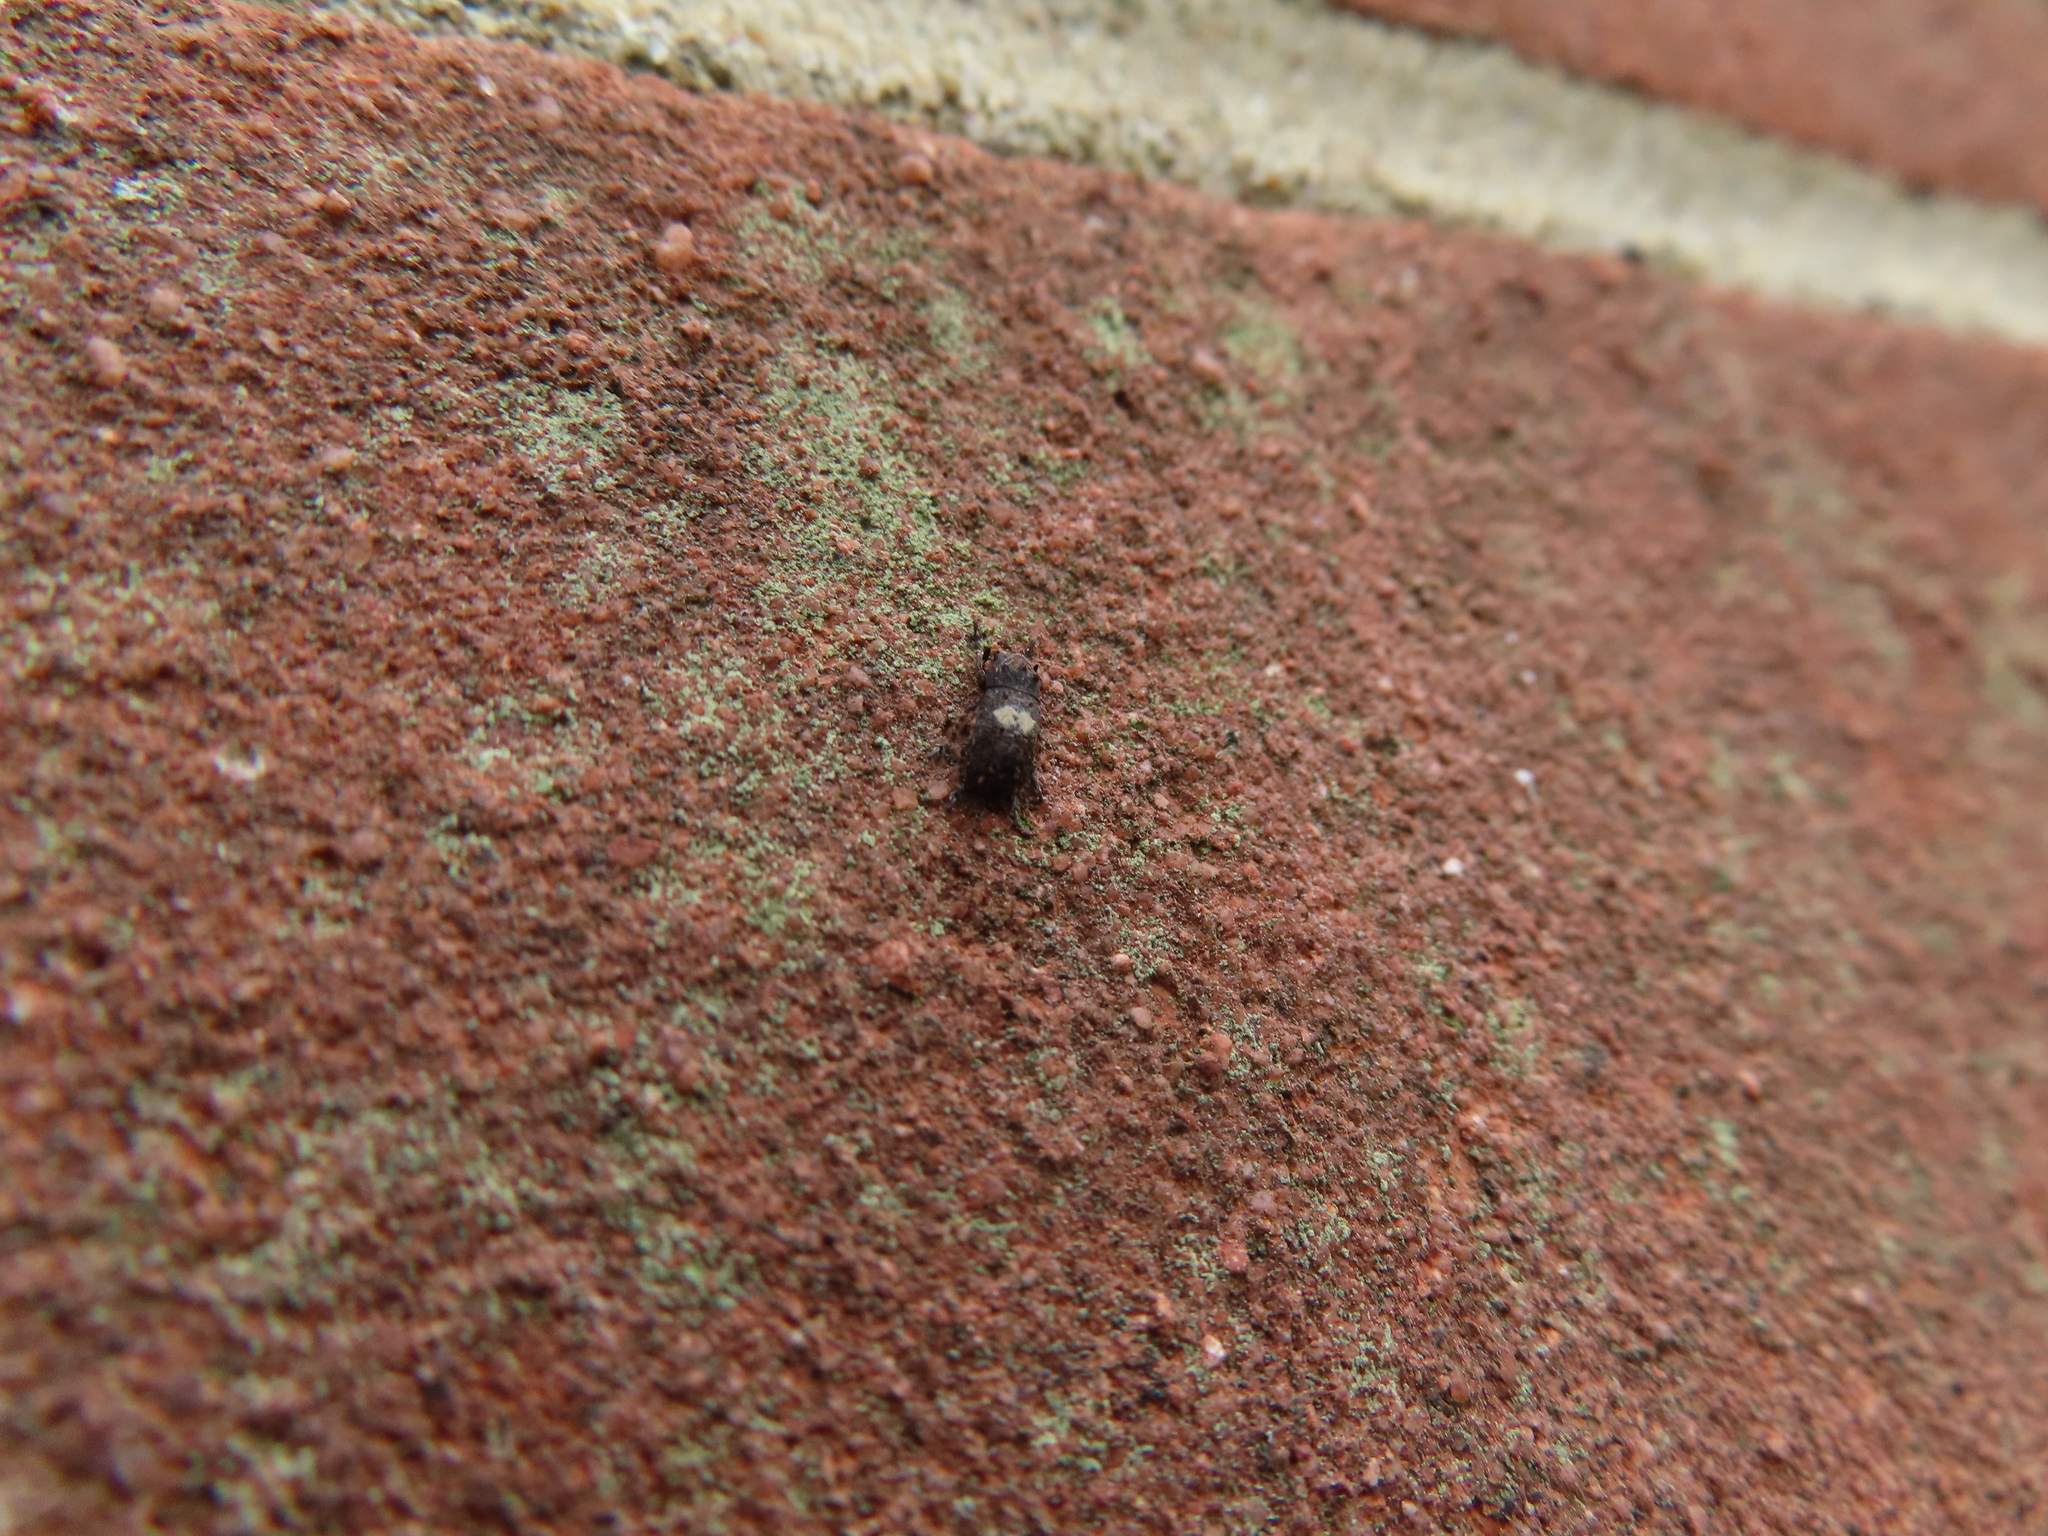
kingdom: Animalia
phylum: Arthropoda
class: Insecta
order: Coleoptera
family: Anthribidae
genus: Toxonotus
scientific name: Toxonotus cornutus
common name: Fungus weevil
